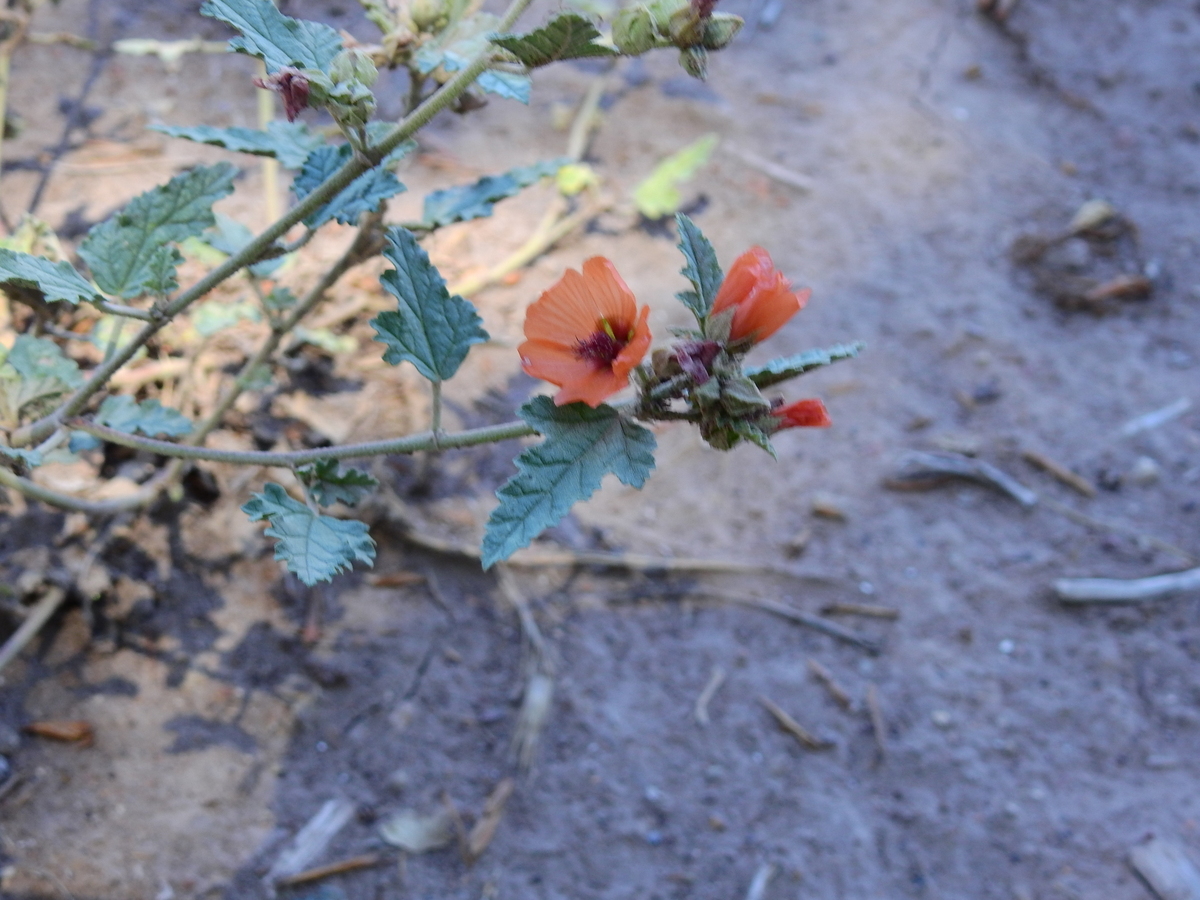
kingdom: Plantae
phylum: Tracheophyta
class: Magnoliopsida
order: Malvales
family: Malvaceae
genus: Sphaeralcea
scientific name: Sphaeralcea miniata
